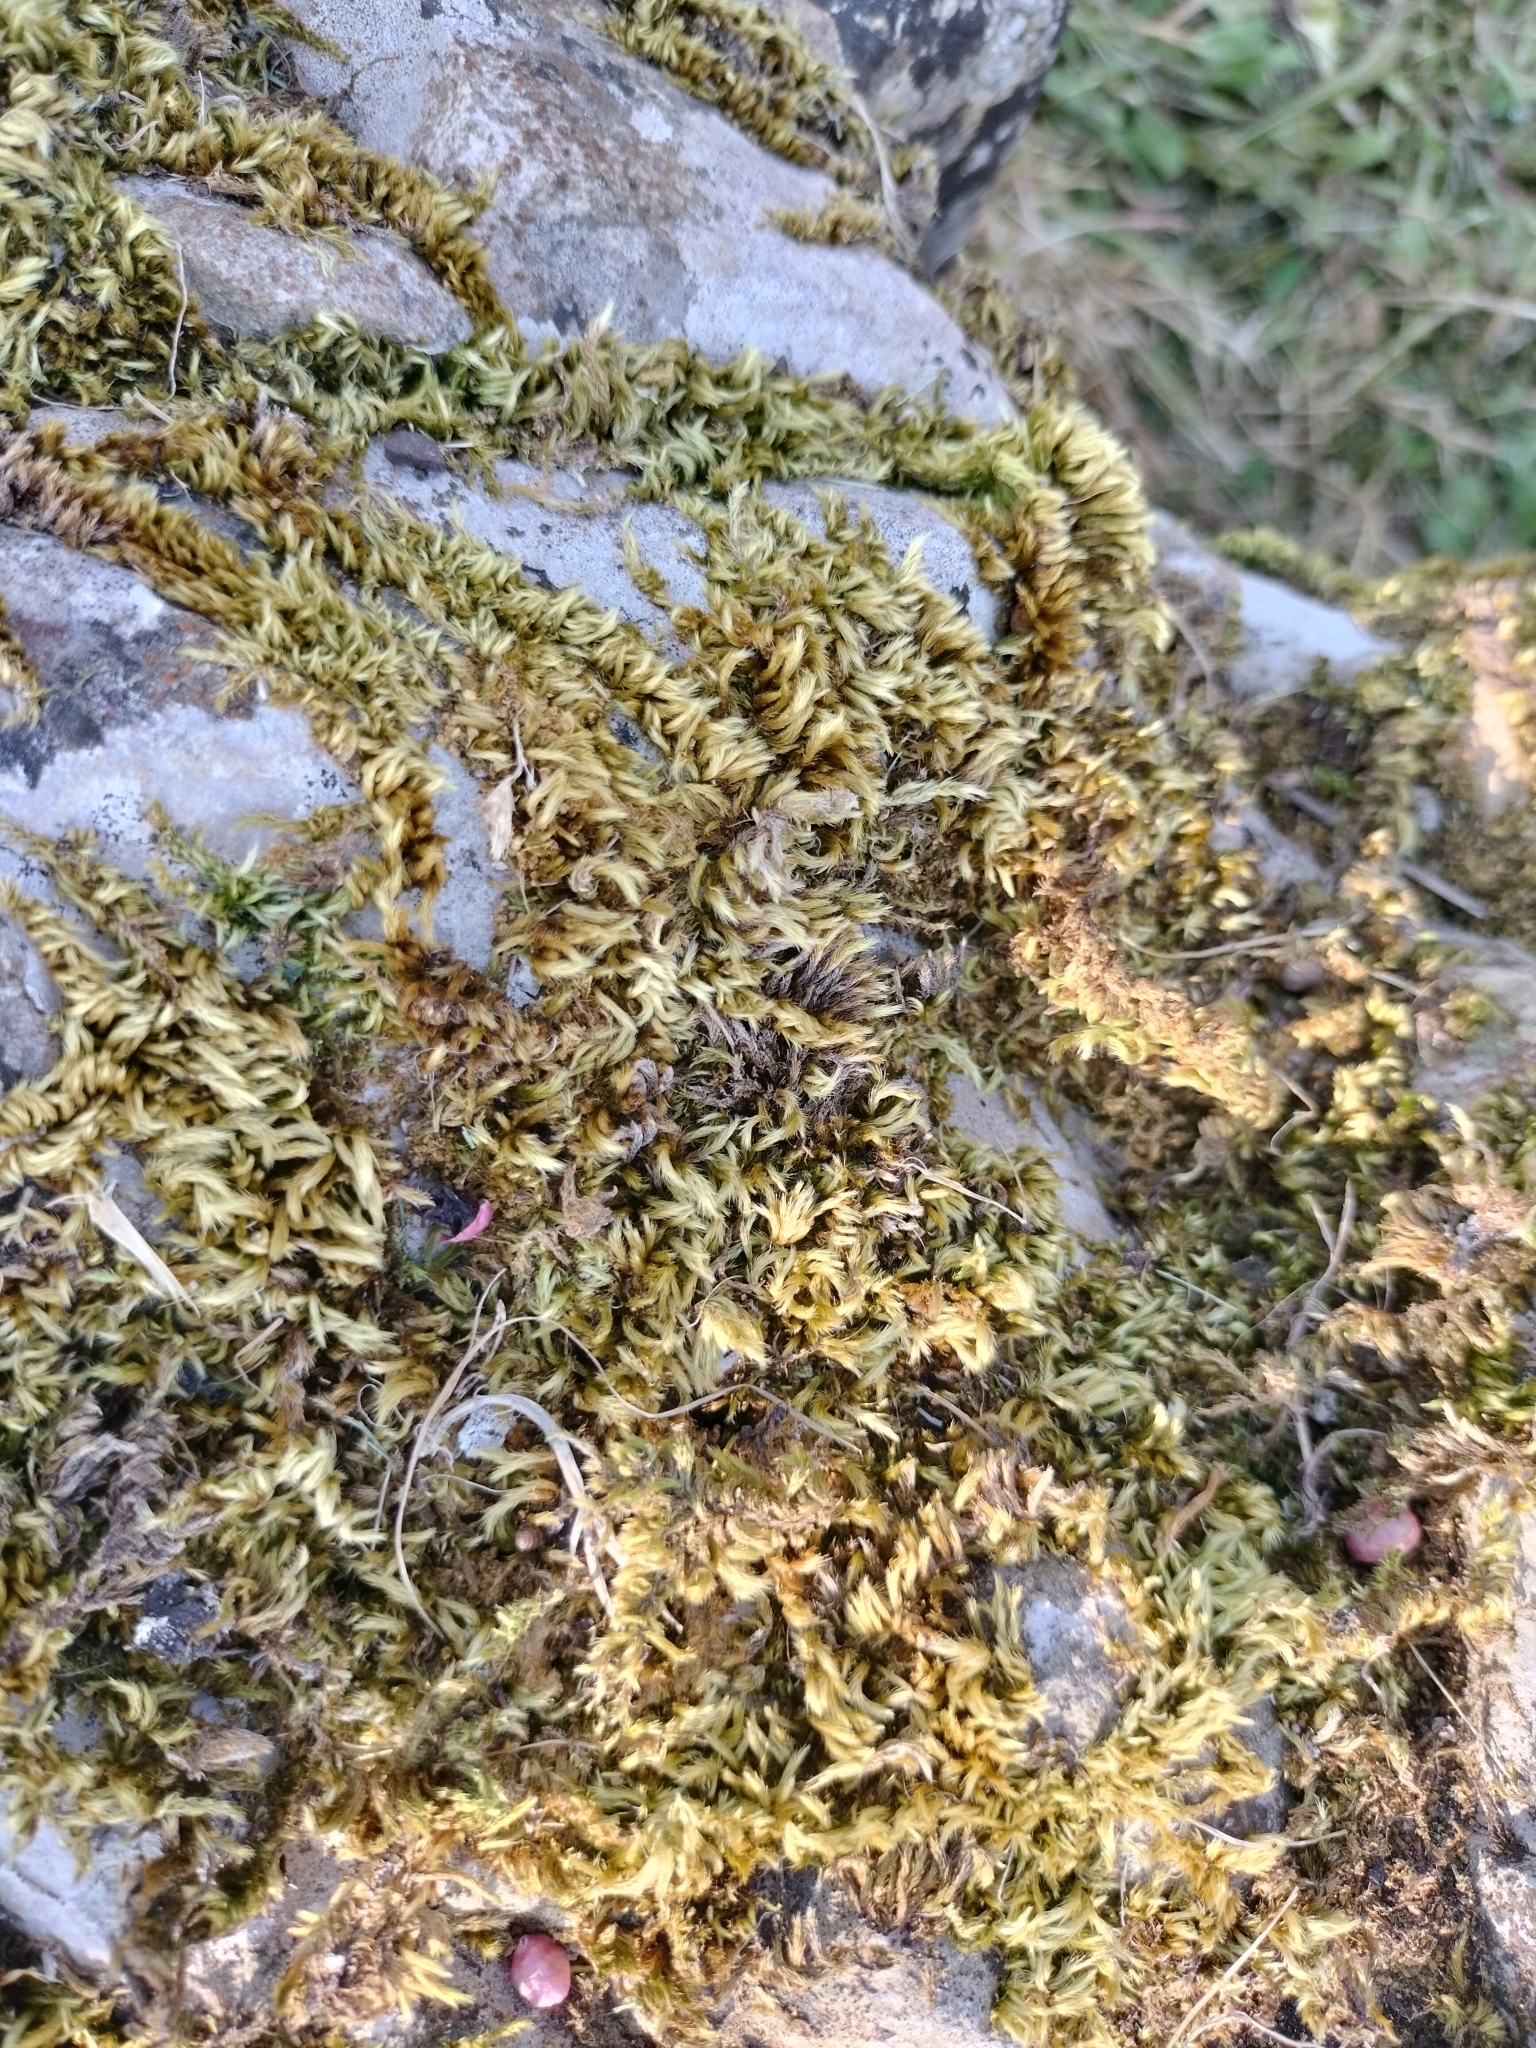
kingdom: Plantae
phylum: Bryophyta
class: Bryopsida
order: Hypnales
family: Brachytheciaceae
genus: Homalothecium
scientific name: Homalothecium sericeum
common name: Silky wall feather-moss
